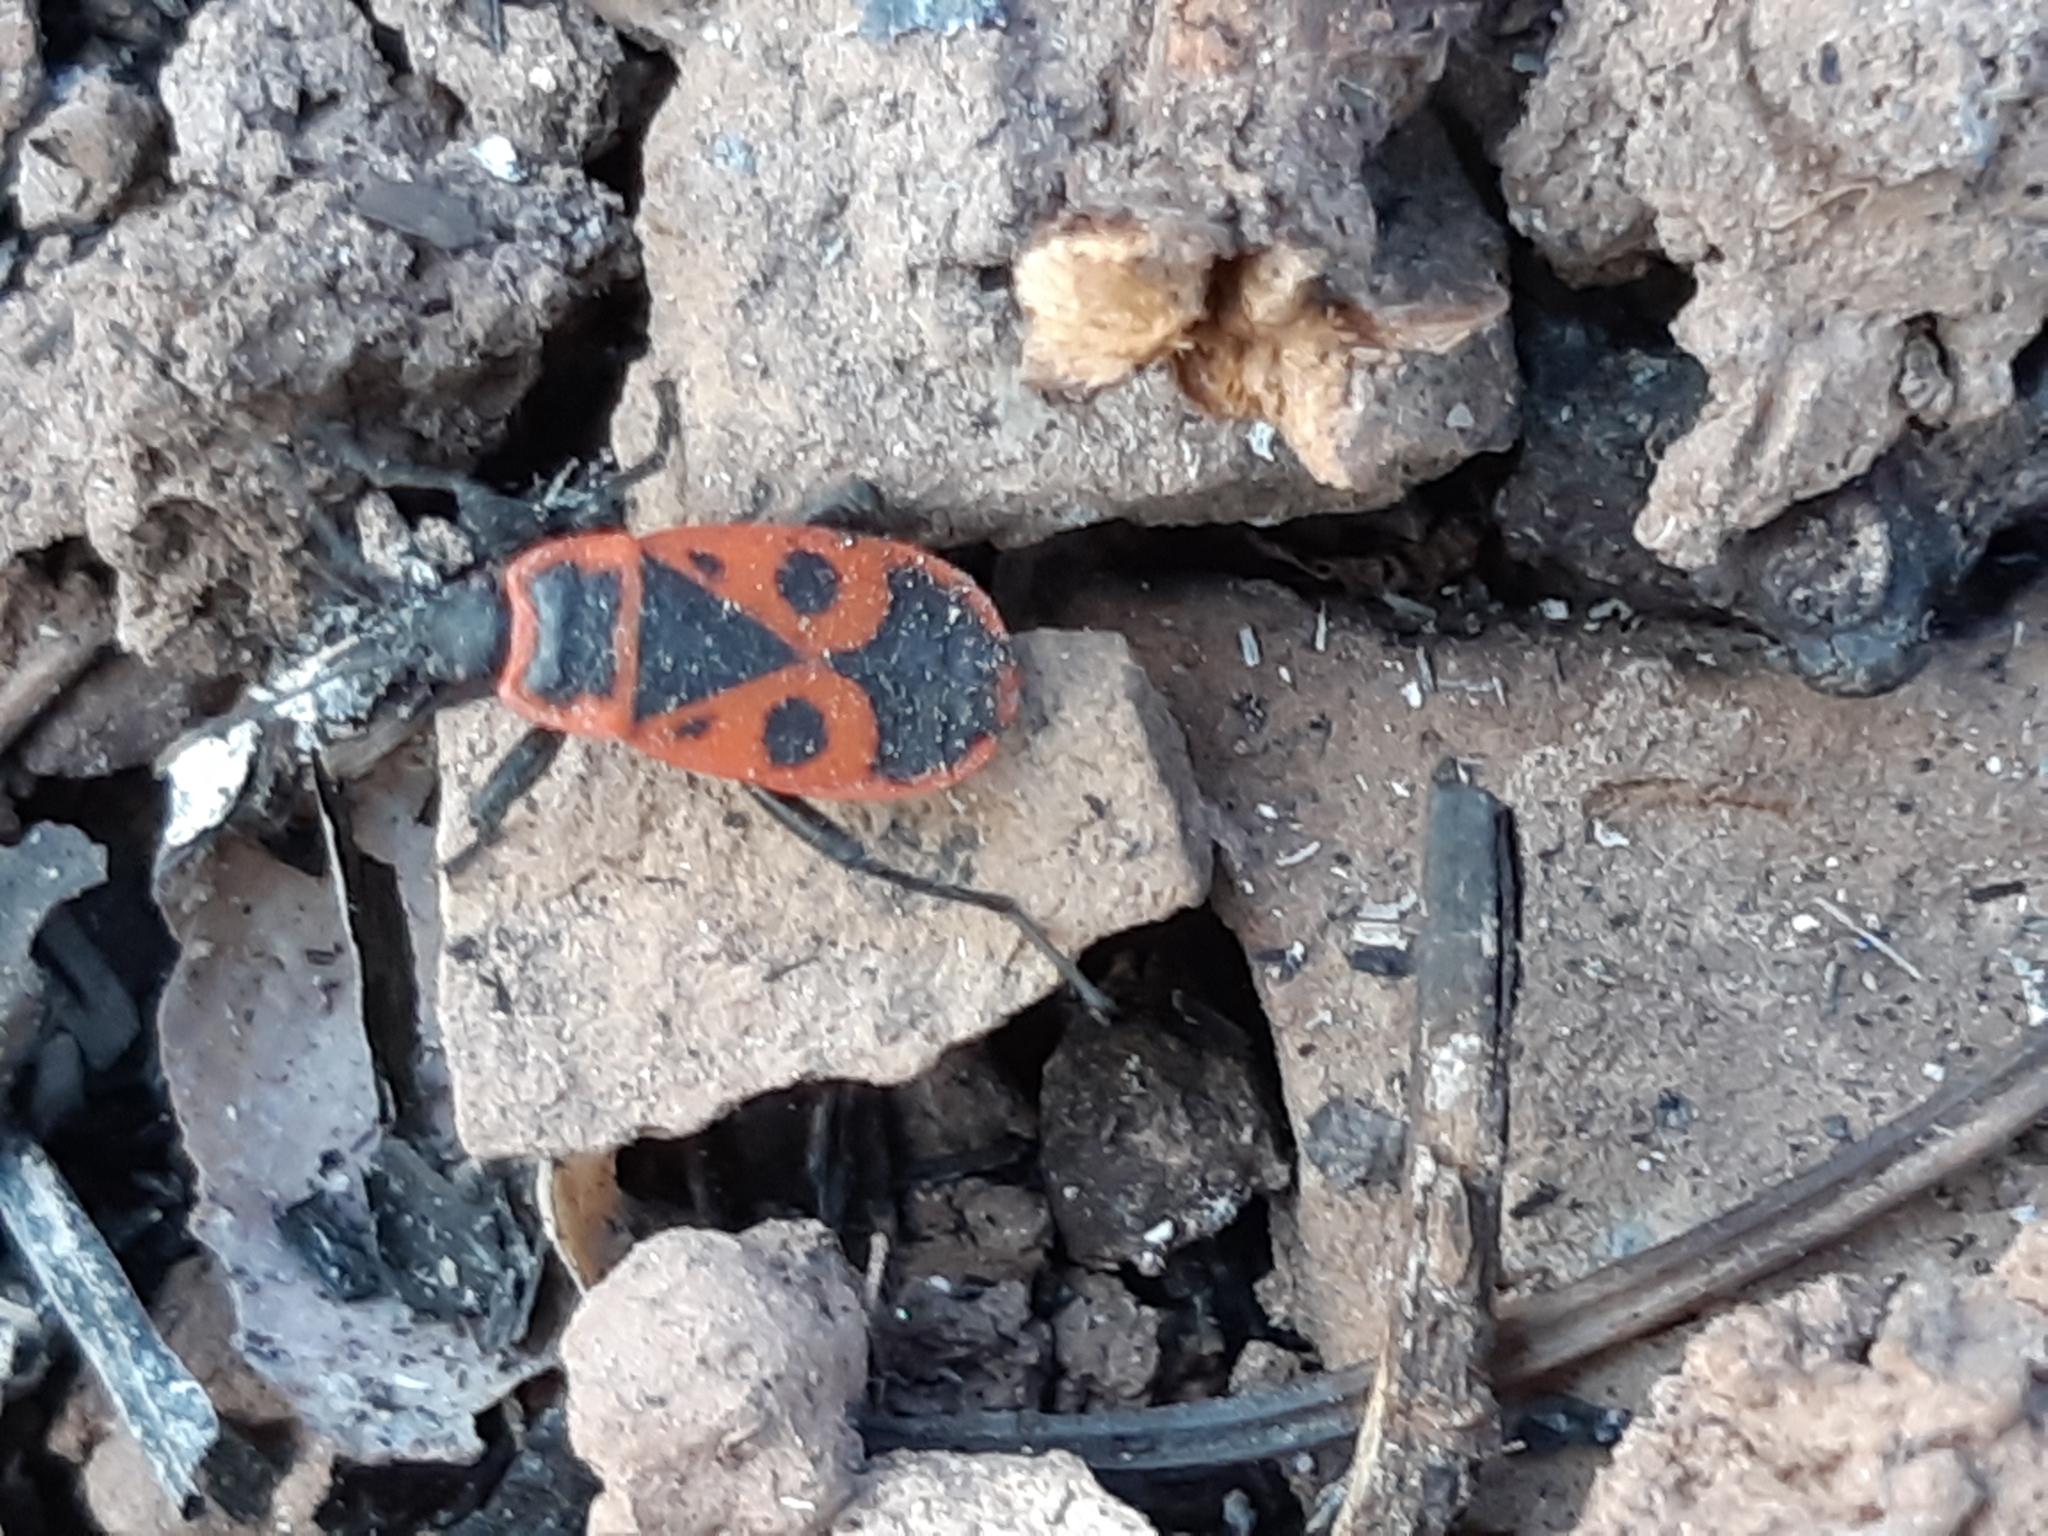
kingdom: Animalia
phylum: Arthropoda
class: Insecta
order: Hemiptera
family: Pyrrhocoridae
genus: Pyrrhocoris
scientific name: Pyrrhocoris apterus
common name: Firebug
